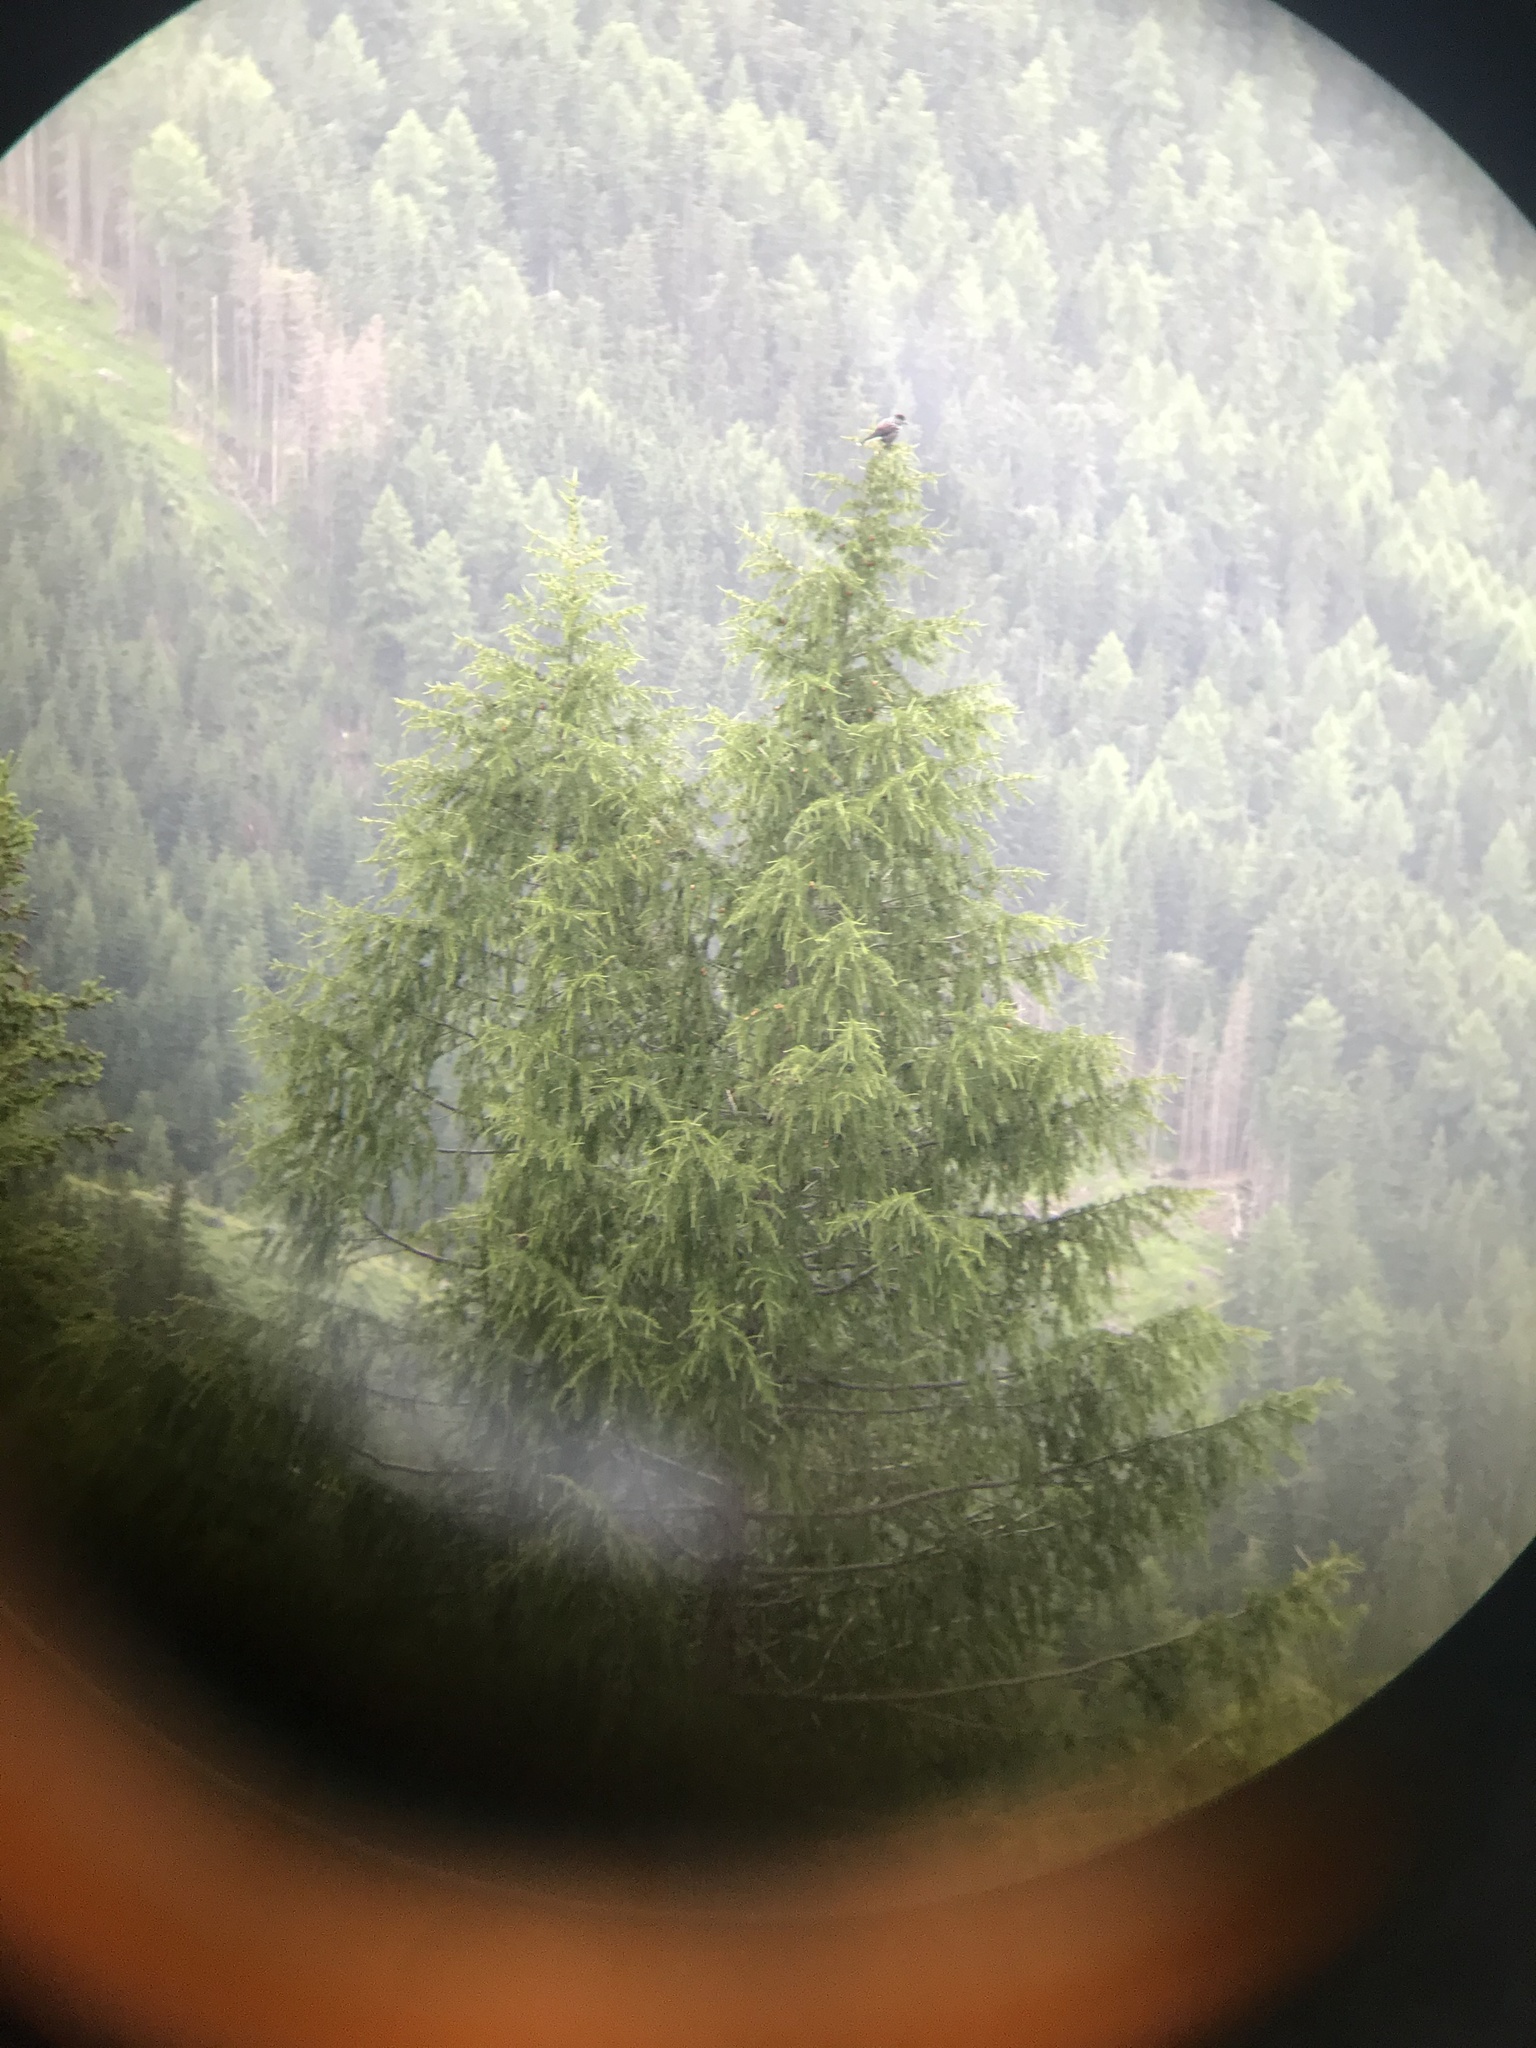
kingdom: Animalia
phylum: Chordata
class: Aves
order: Passeriformes
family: Corvidae
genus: Nucifraga
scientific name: Nucifraga caryocatactes
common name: Spotted nutcracker
